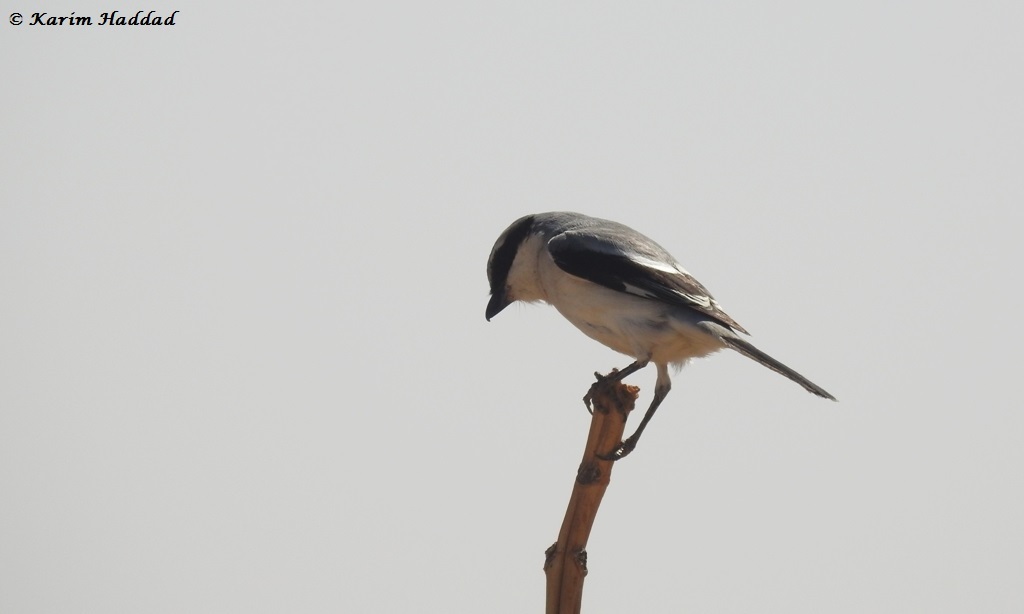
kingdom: Animalia
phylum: Chordata
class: Aves
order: Passeriformes
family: Laniidae
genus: Lanius
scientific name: Lanius excubitor
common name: Great grey shrike
